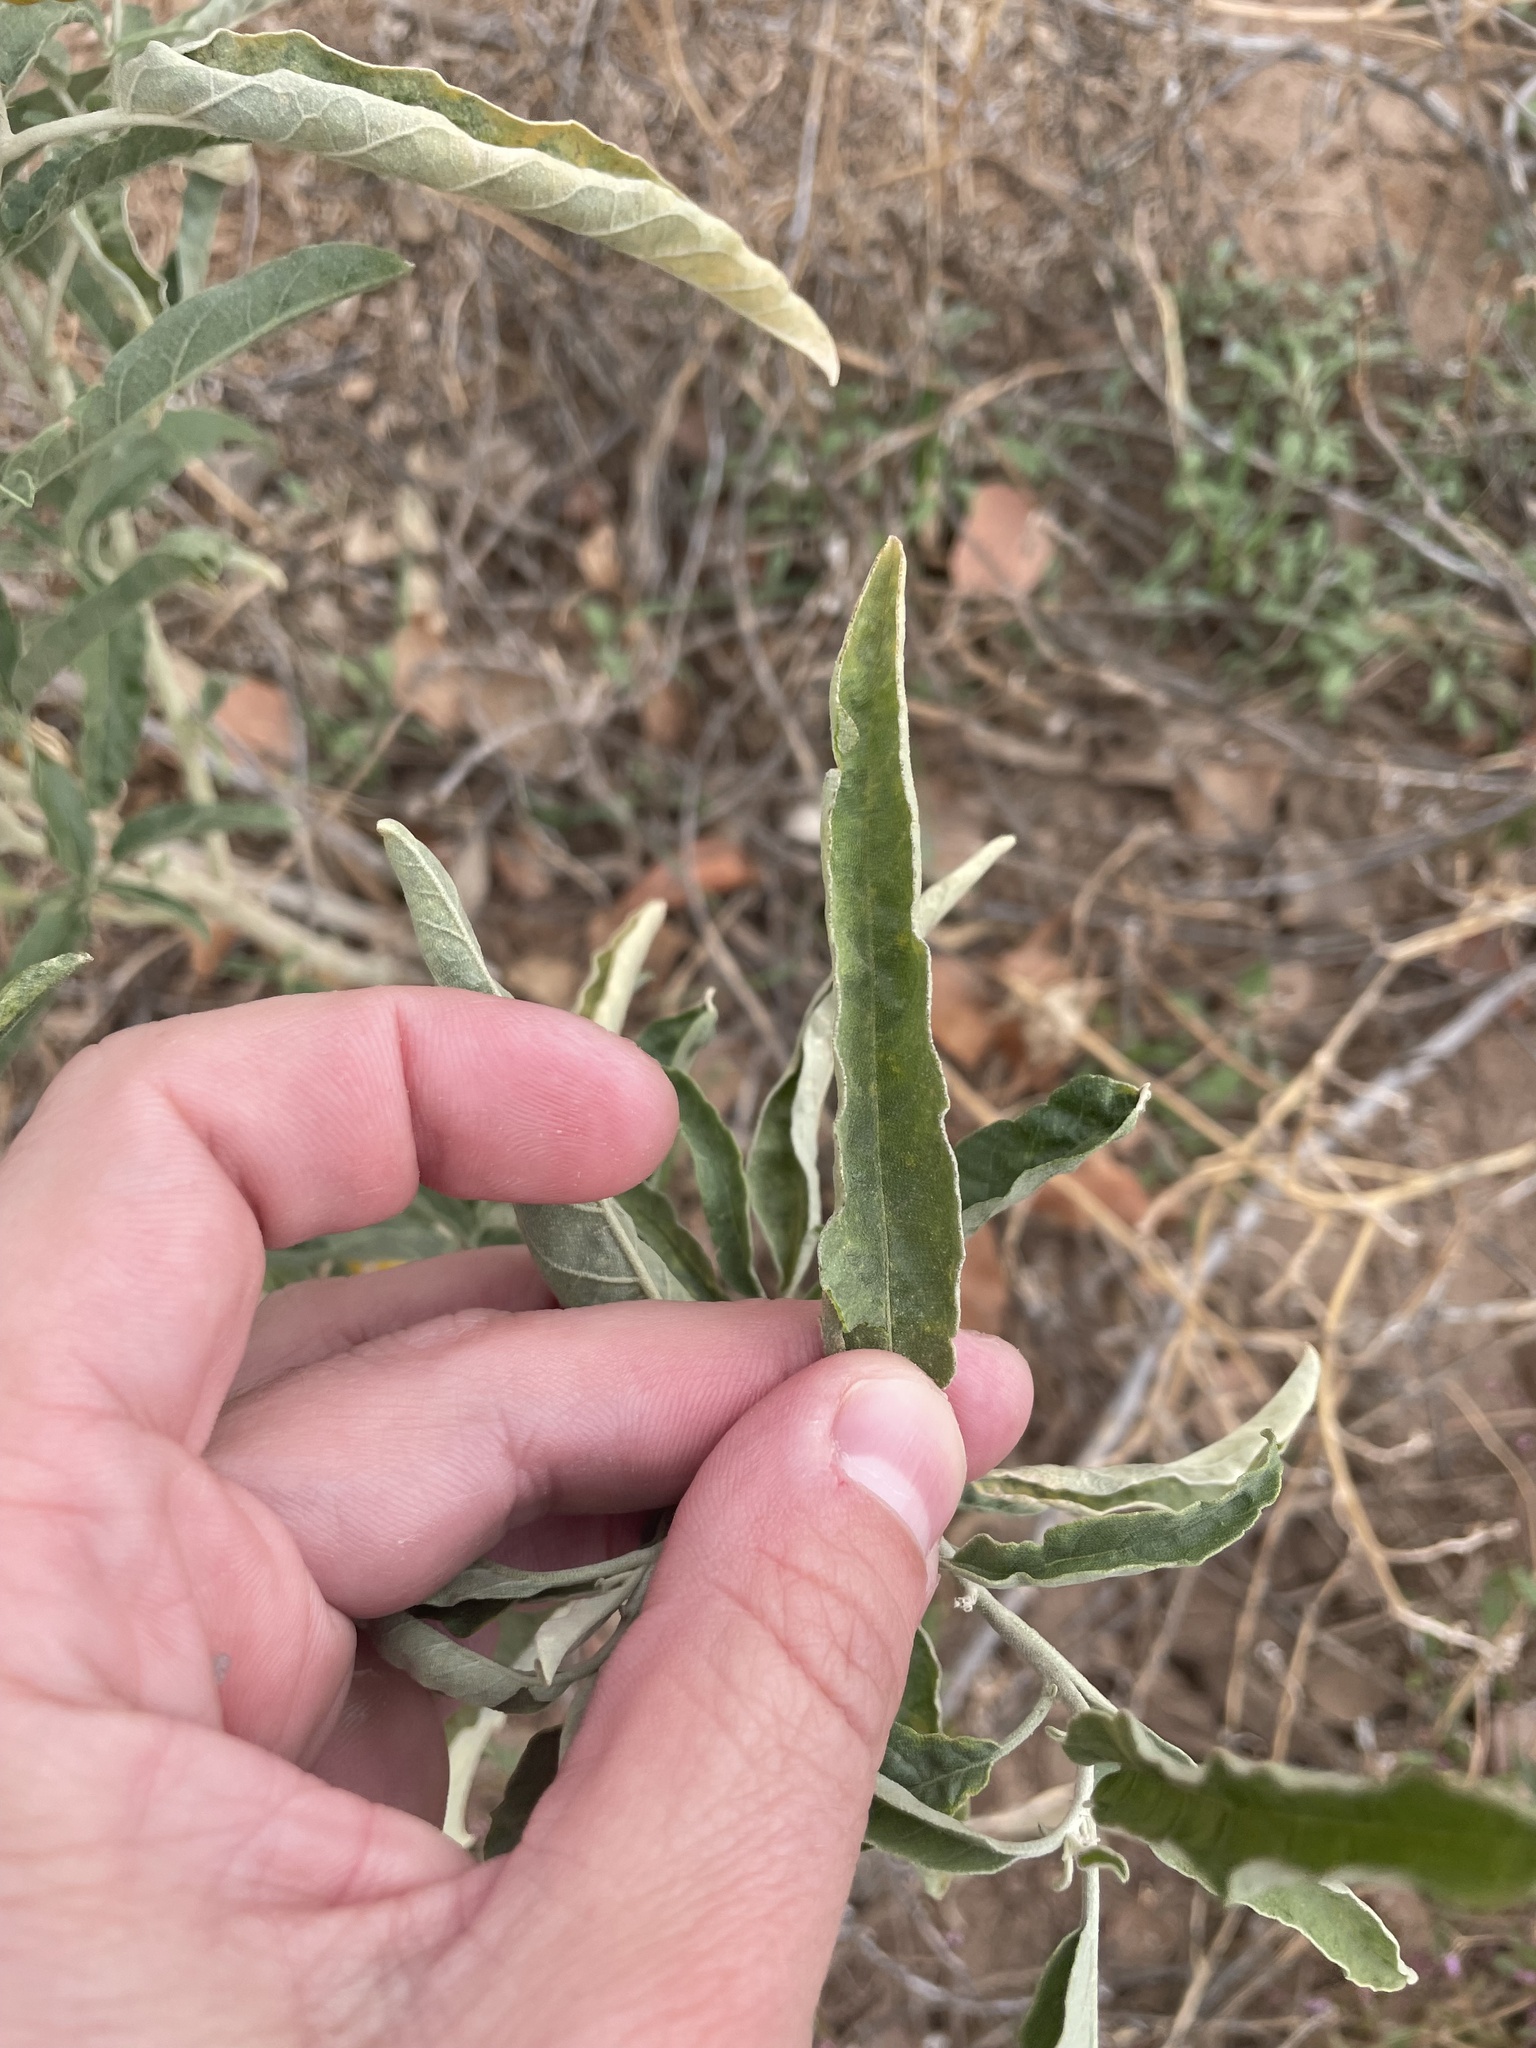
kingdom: Plantae
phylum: Tracheophyta
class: Magnoliopsida
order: Solanales
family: Solanaceae
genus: Solanum
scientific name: Solanum elaeagnifolium
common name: Silverleaf nightshade
